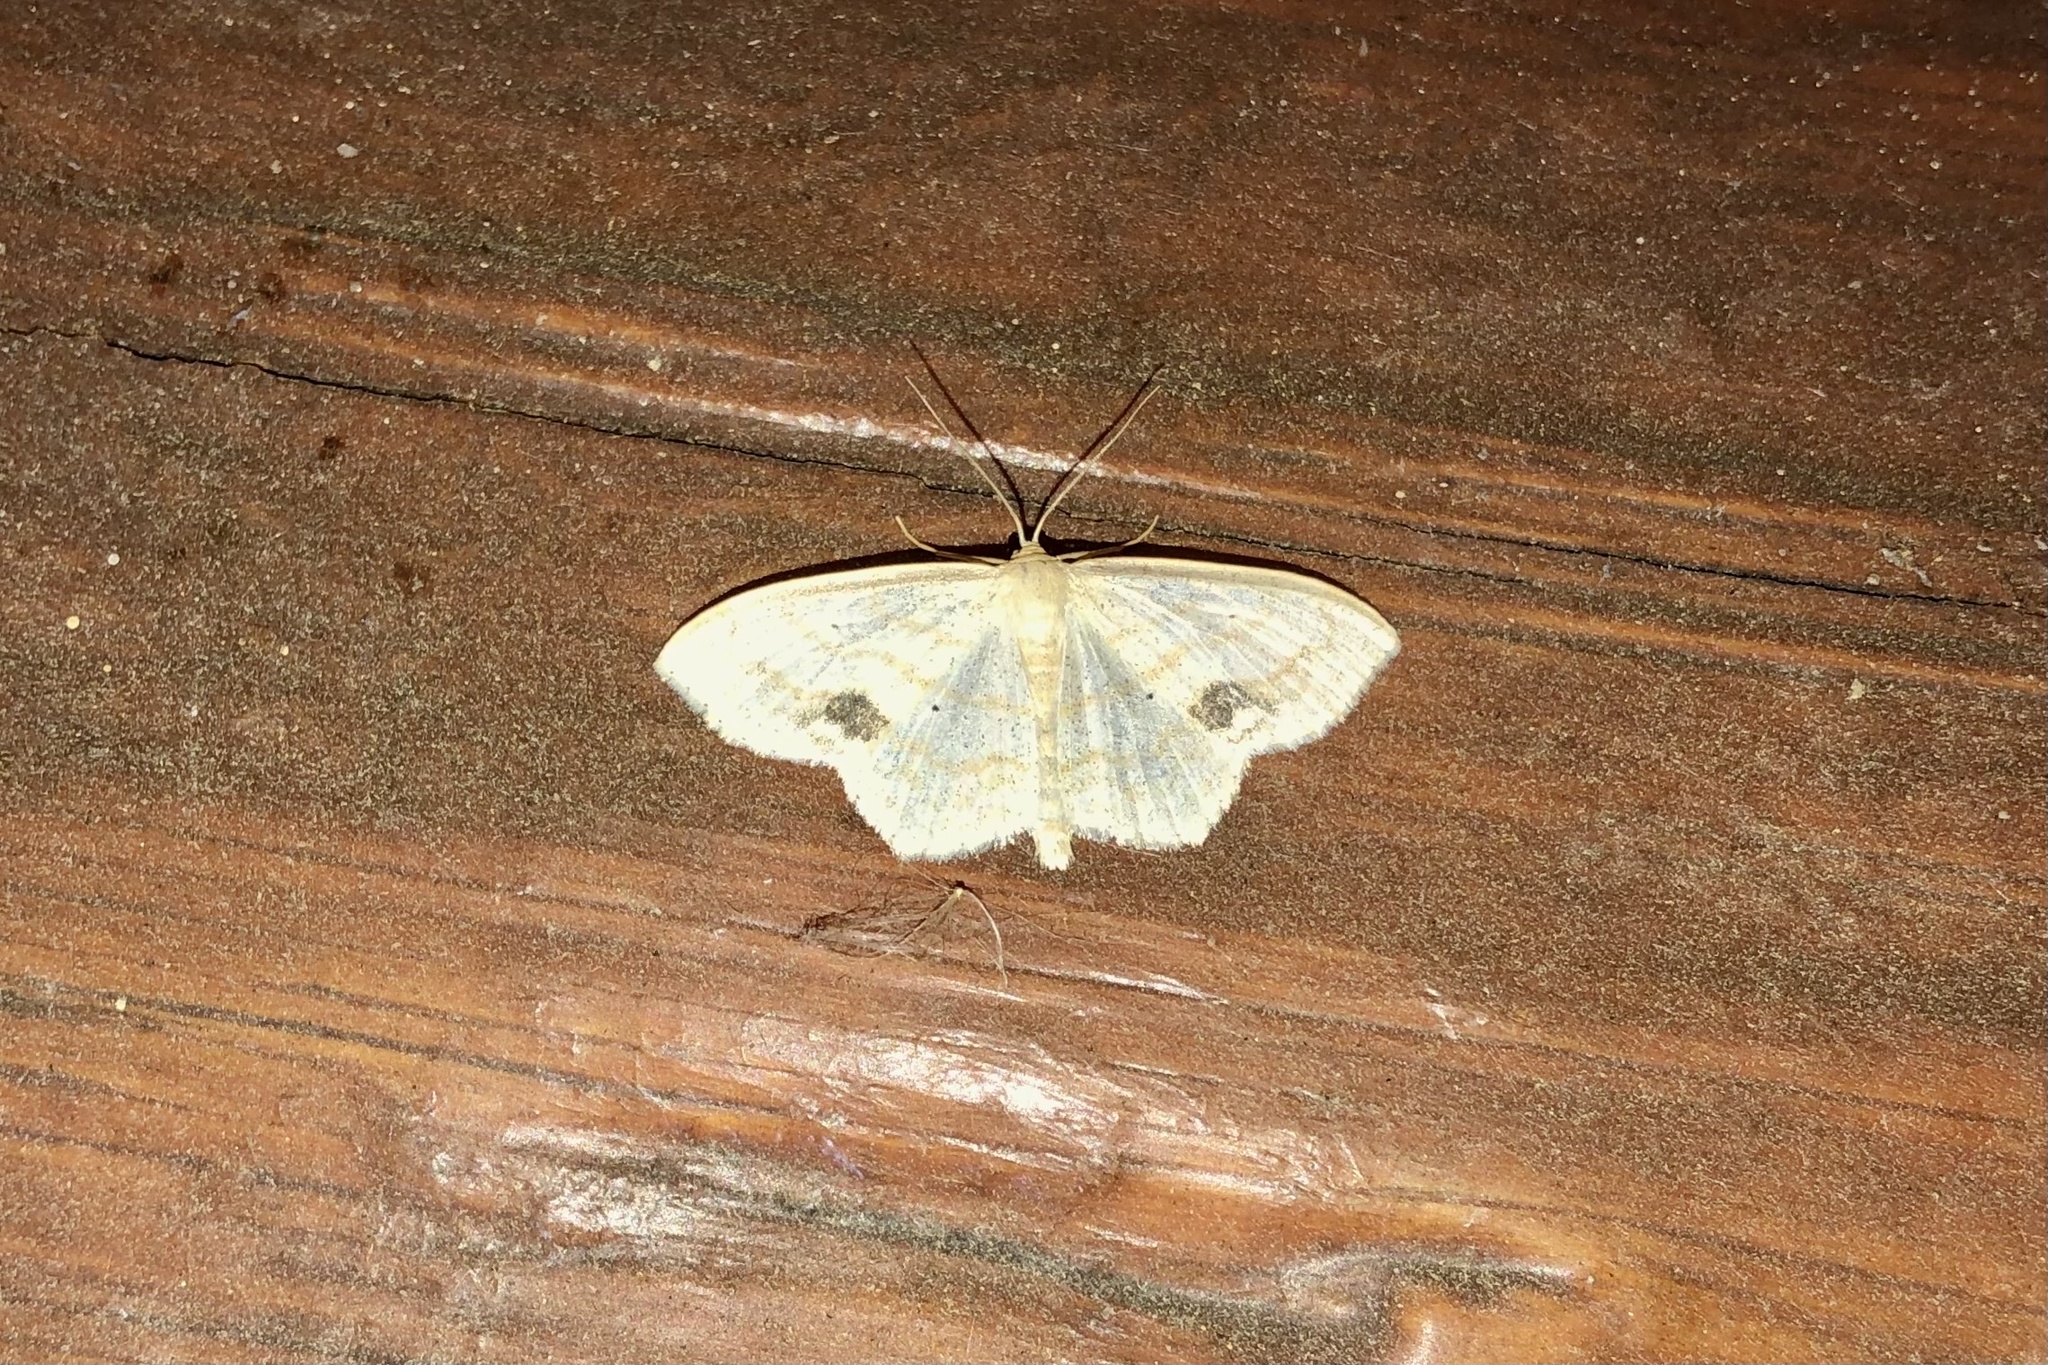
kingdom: Animalia
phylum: Arthropoda
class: Insecta
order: Lepidoptera
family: Geometridae
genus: Scopula
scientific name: Scopula limboundata
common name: Large lace border
